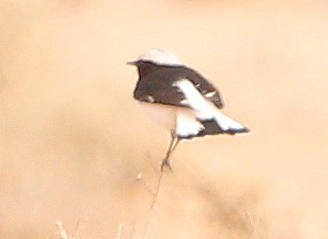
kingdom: Animalia
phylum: Chordata
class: Aves
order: Passeriformes
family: Muscicapidae
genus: Oenanthe
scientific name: Oenanthe lugens
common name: Mourning wheatear
